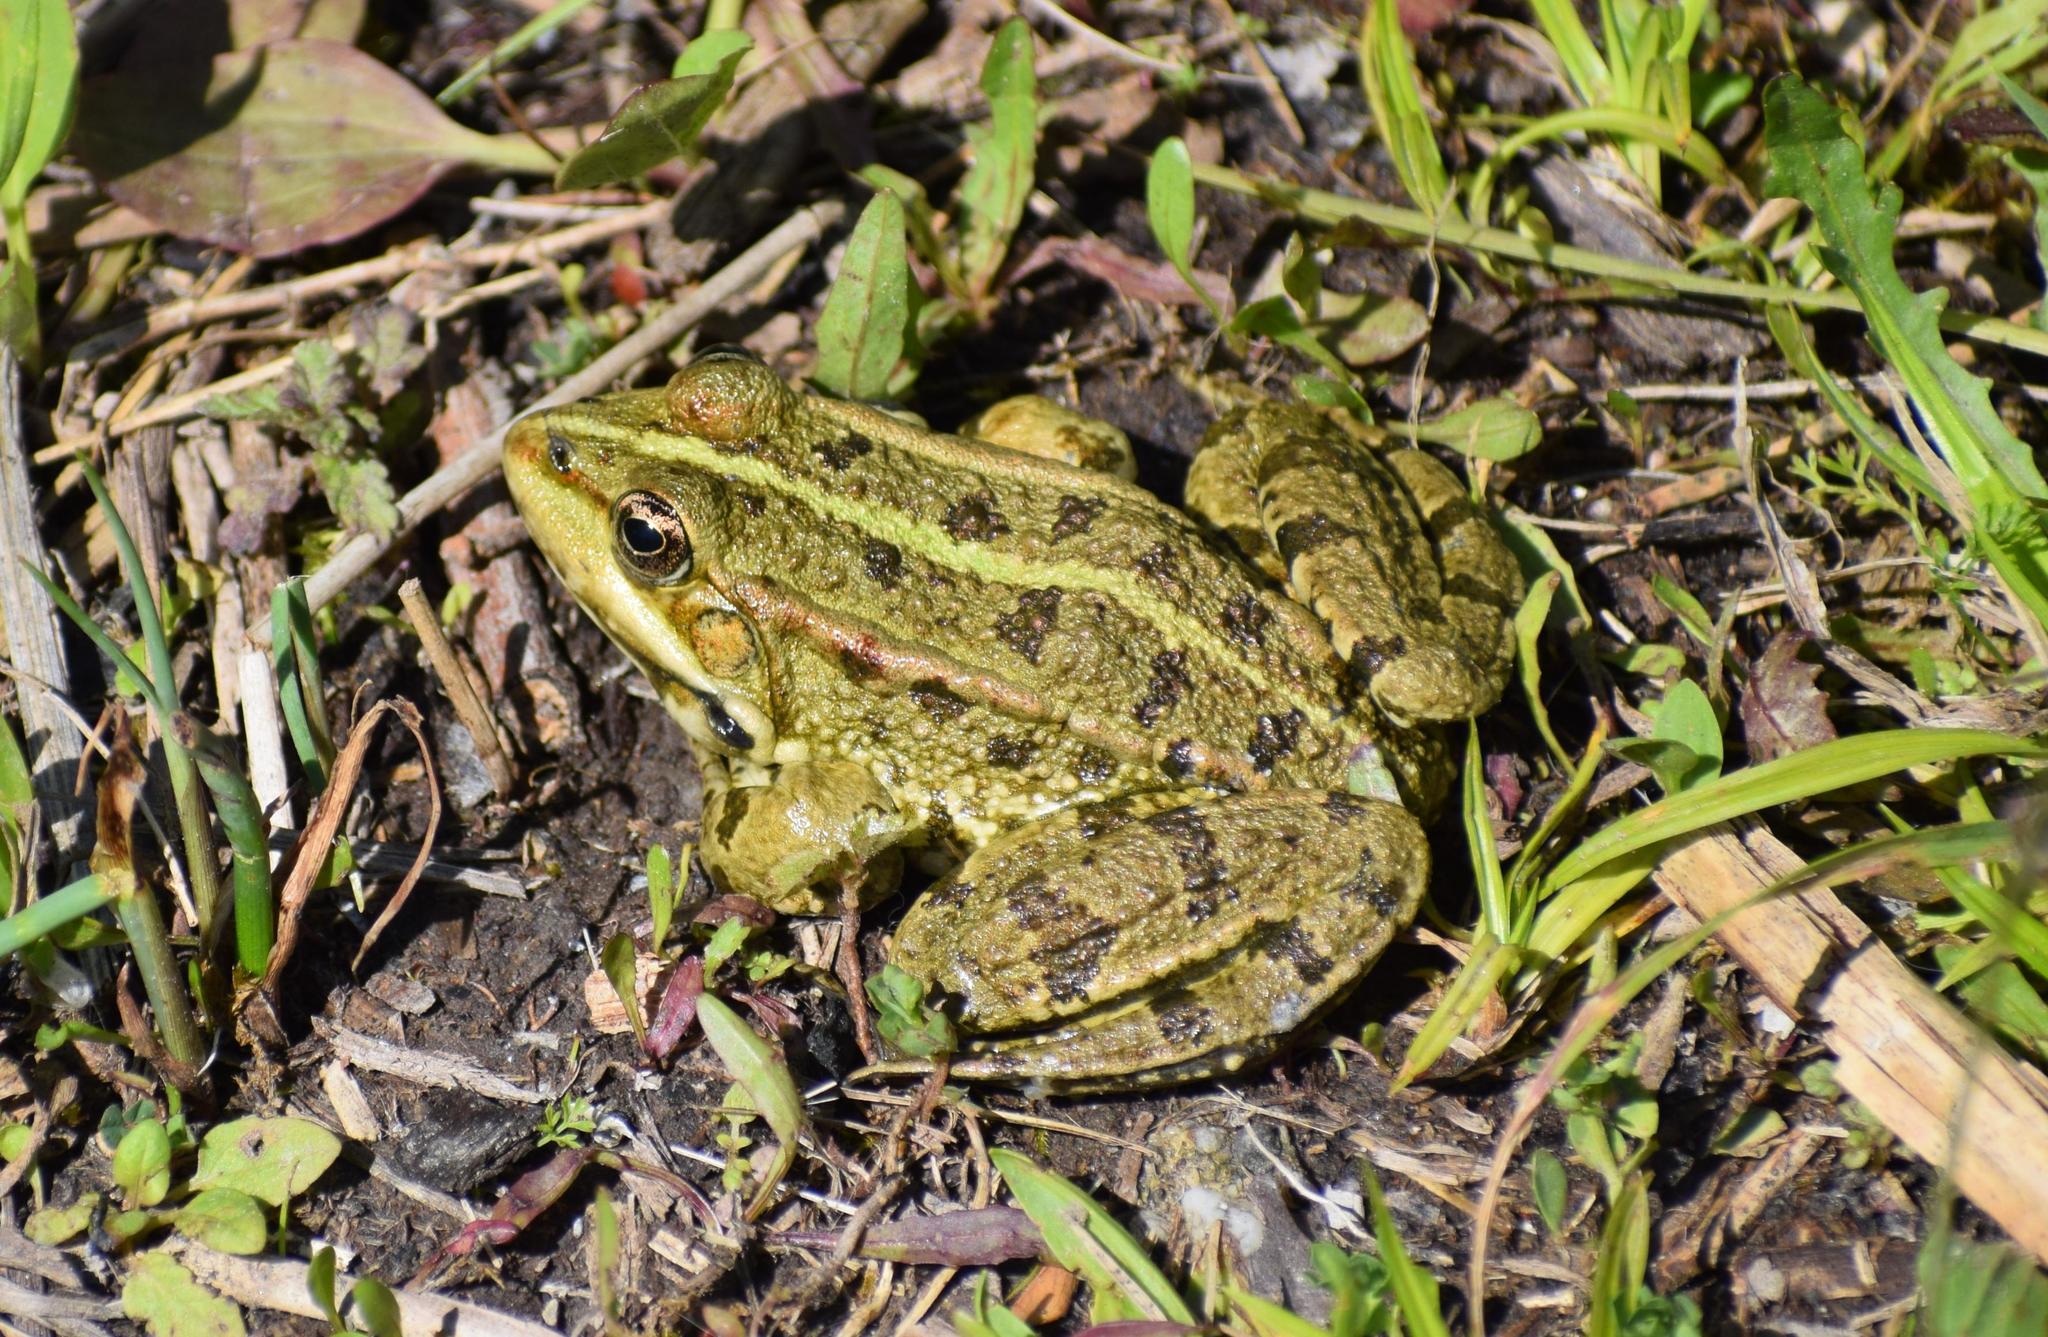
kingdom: Animalia
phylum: Chordata
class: Amphibia
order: Anura
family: Ranidae
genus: Pelophylax
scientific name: Pelophylax
